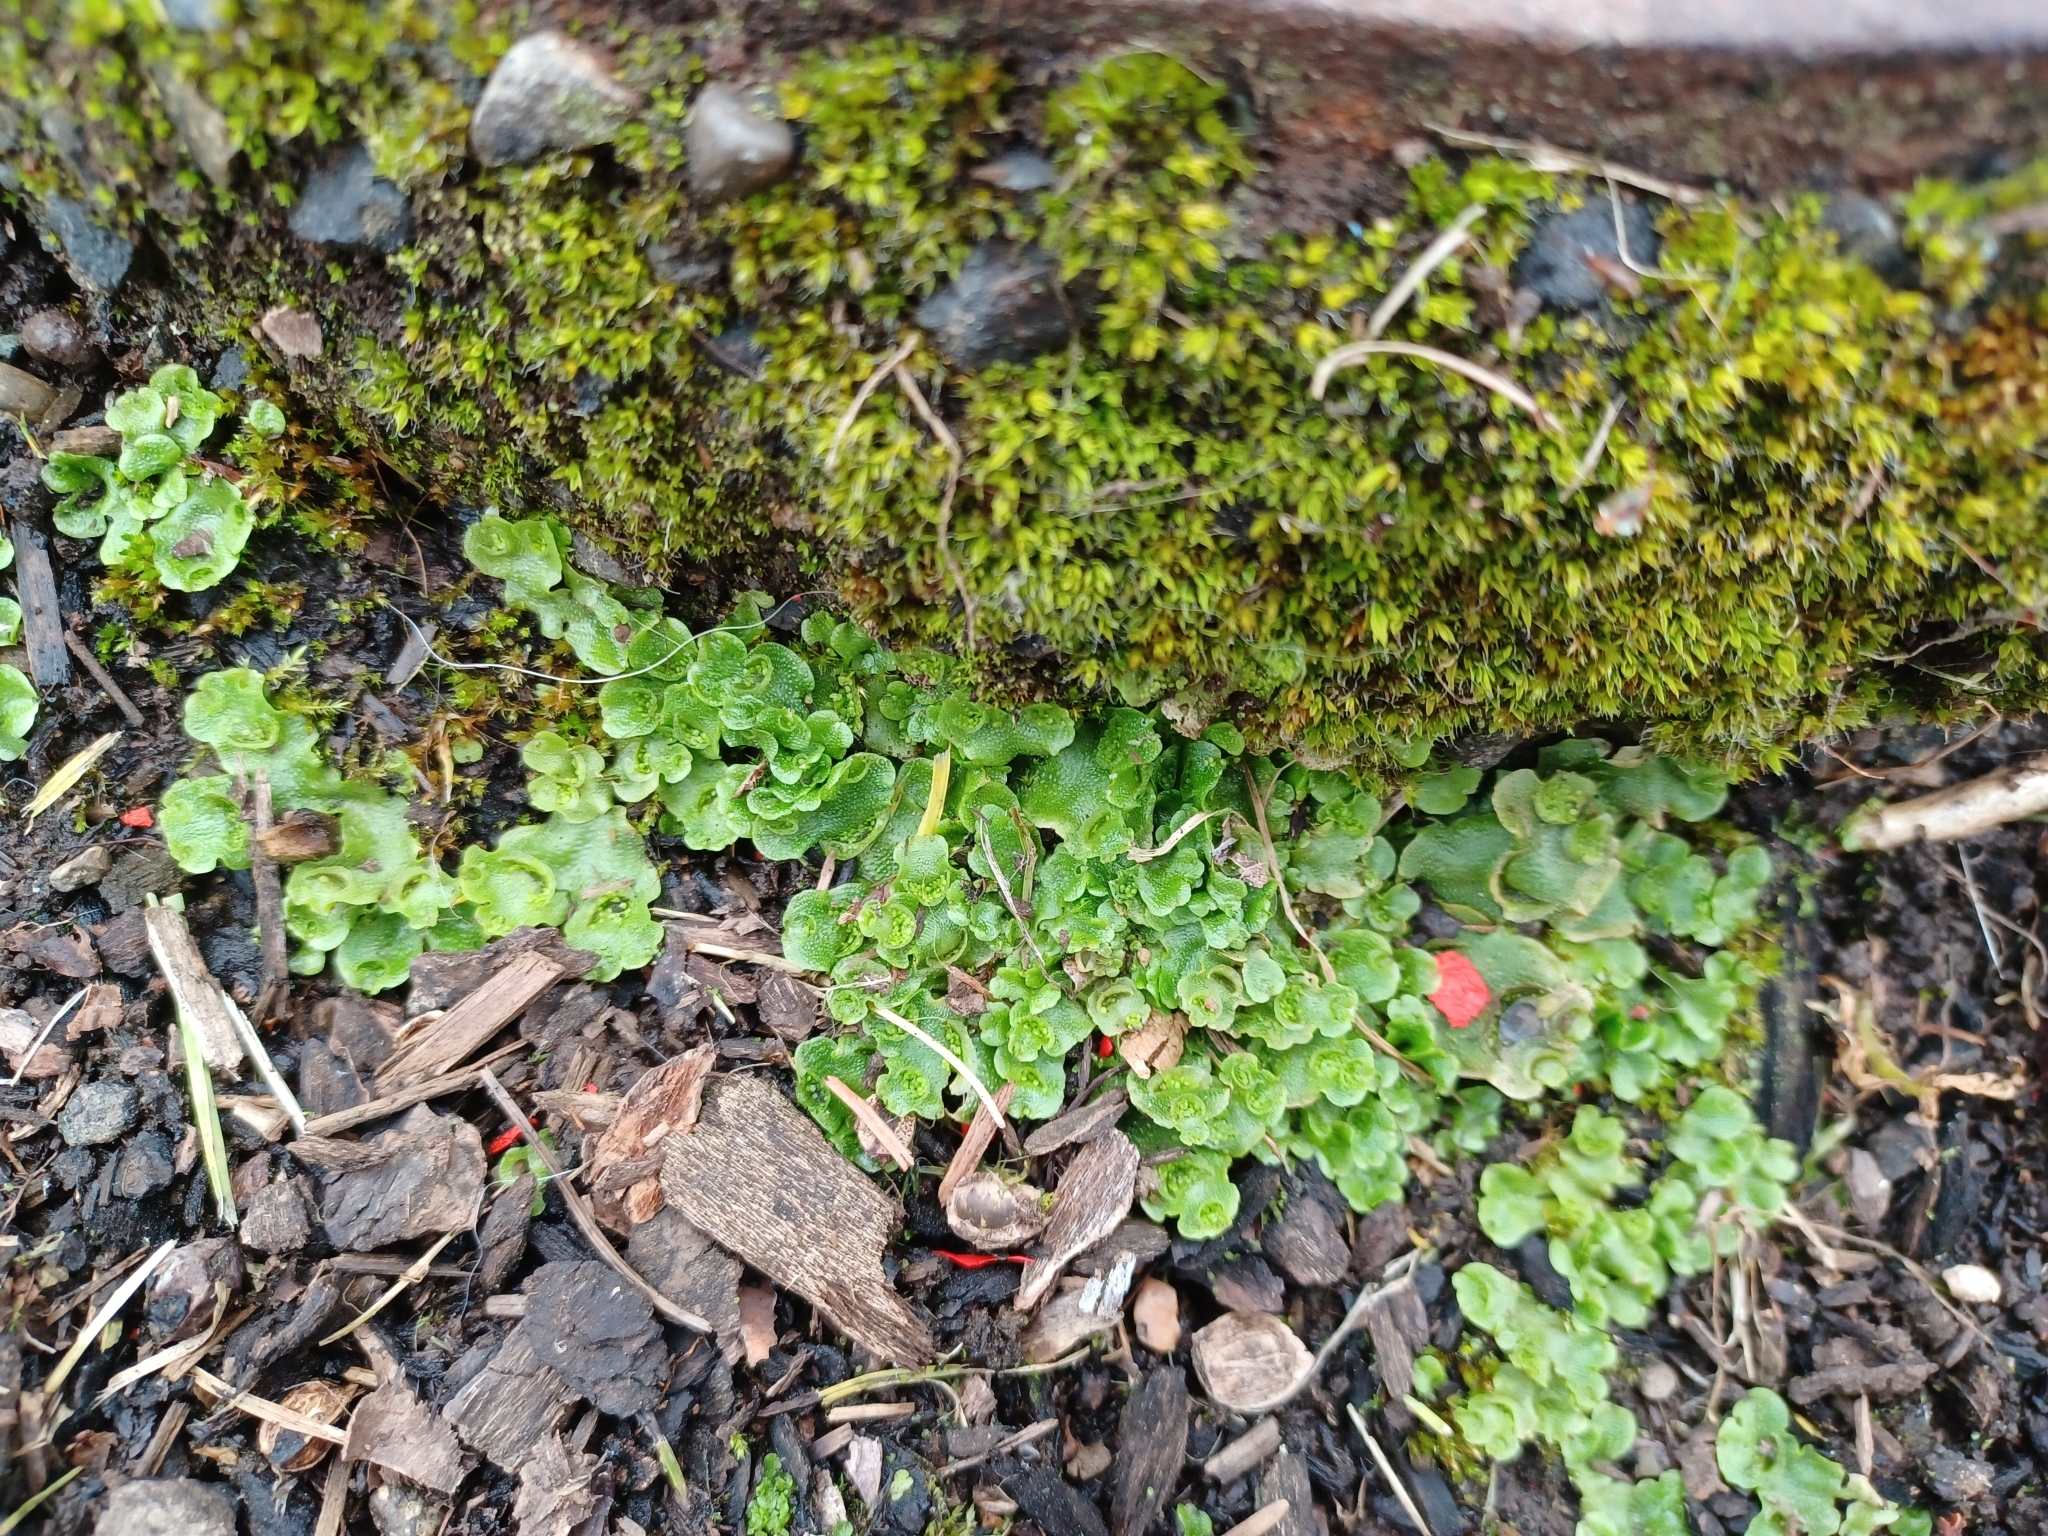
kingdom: Plantae
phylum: Marchantiophyta
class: Marchantiopsida
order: Lunulariales
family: Lunulariaceae
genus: Lunularia
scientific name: Lunularia cruciata
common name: Crescent-cup liverwort
